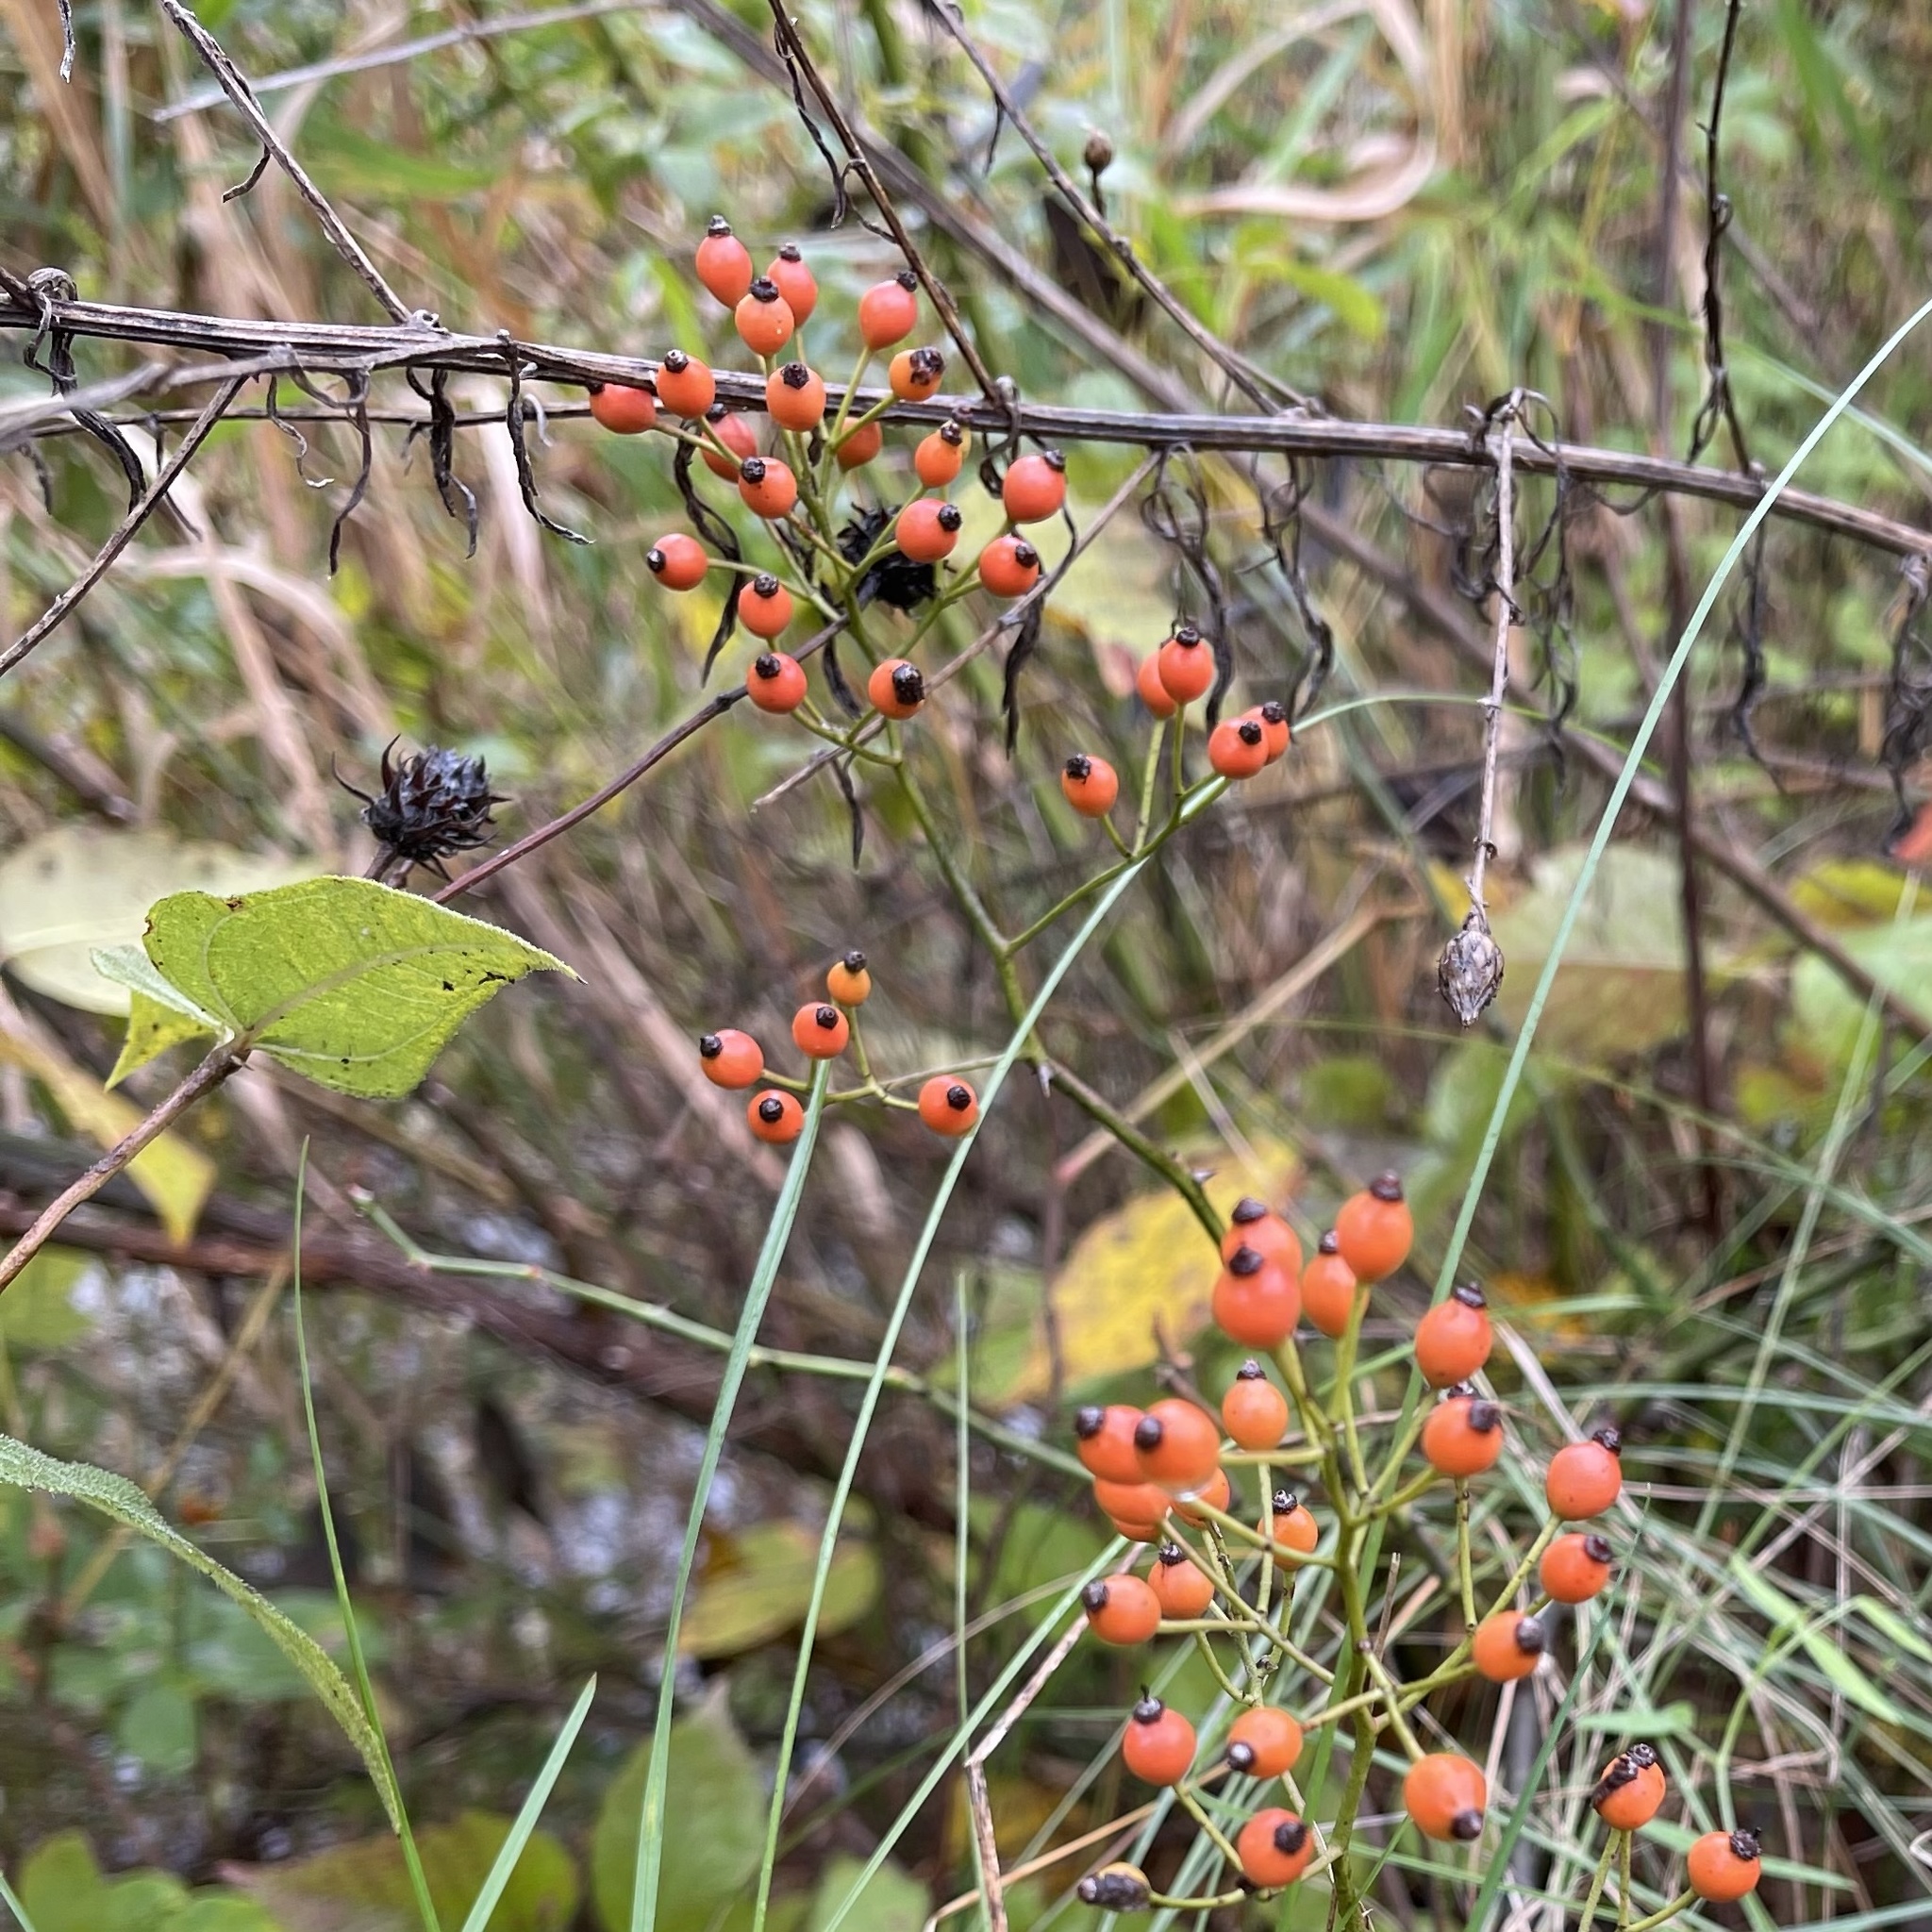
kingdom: Plantae
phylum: Tracheophyta
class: Magnoliopsida
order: Rosales
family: Rosaceae
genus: Rosa
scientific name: Rosa multiflora
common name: Multiflora rose
